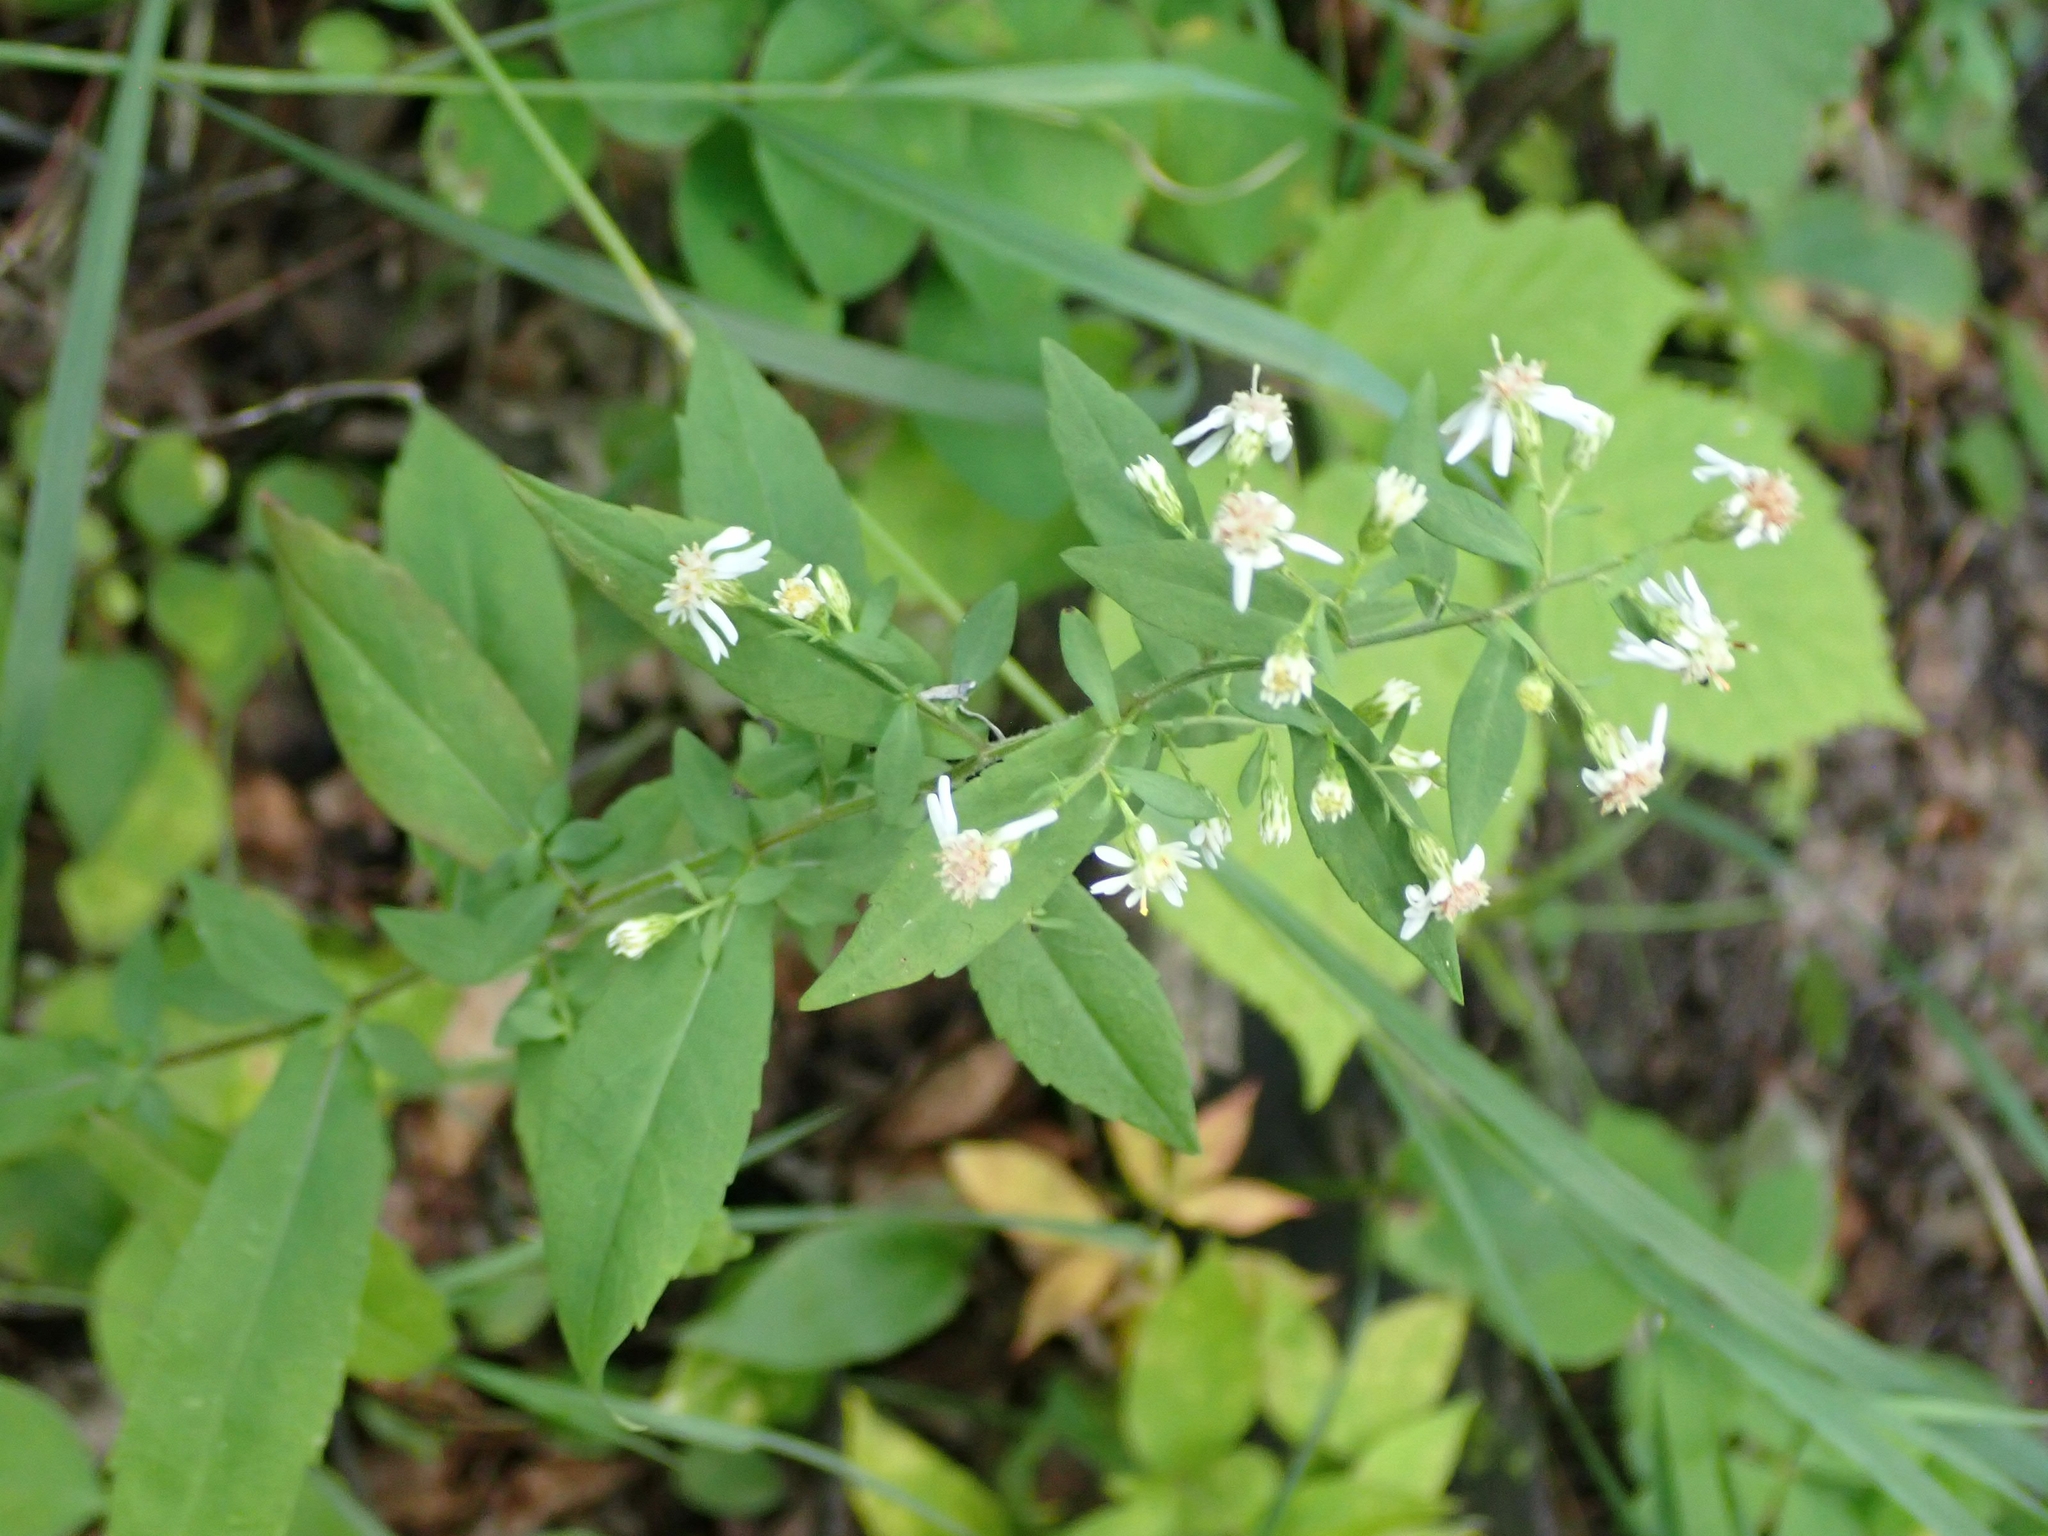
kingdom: Plantae
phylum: Tracheophyta
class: Magnoliopsida
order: Asterales
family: Asteraceae
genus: Symphyotrichum
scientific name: Symphyotrichum lateriflorum
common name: Calico aster
